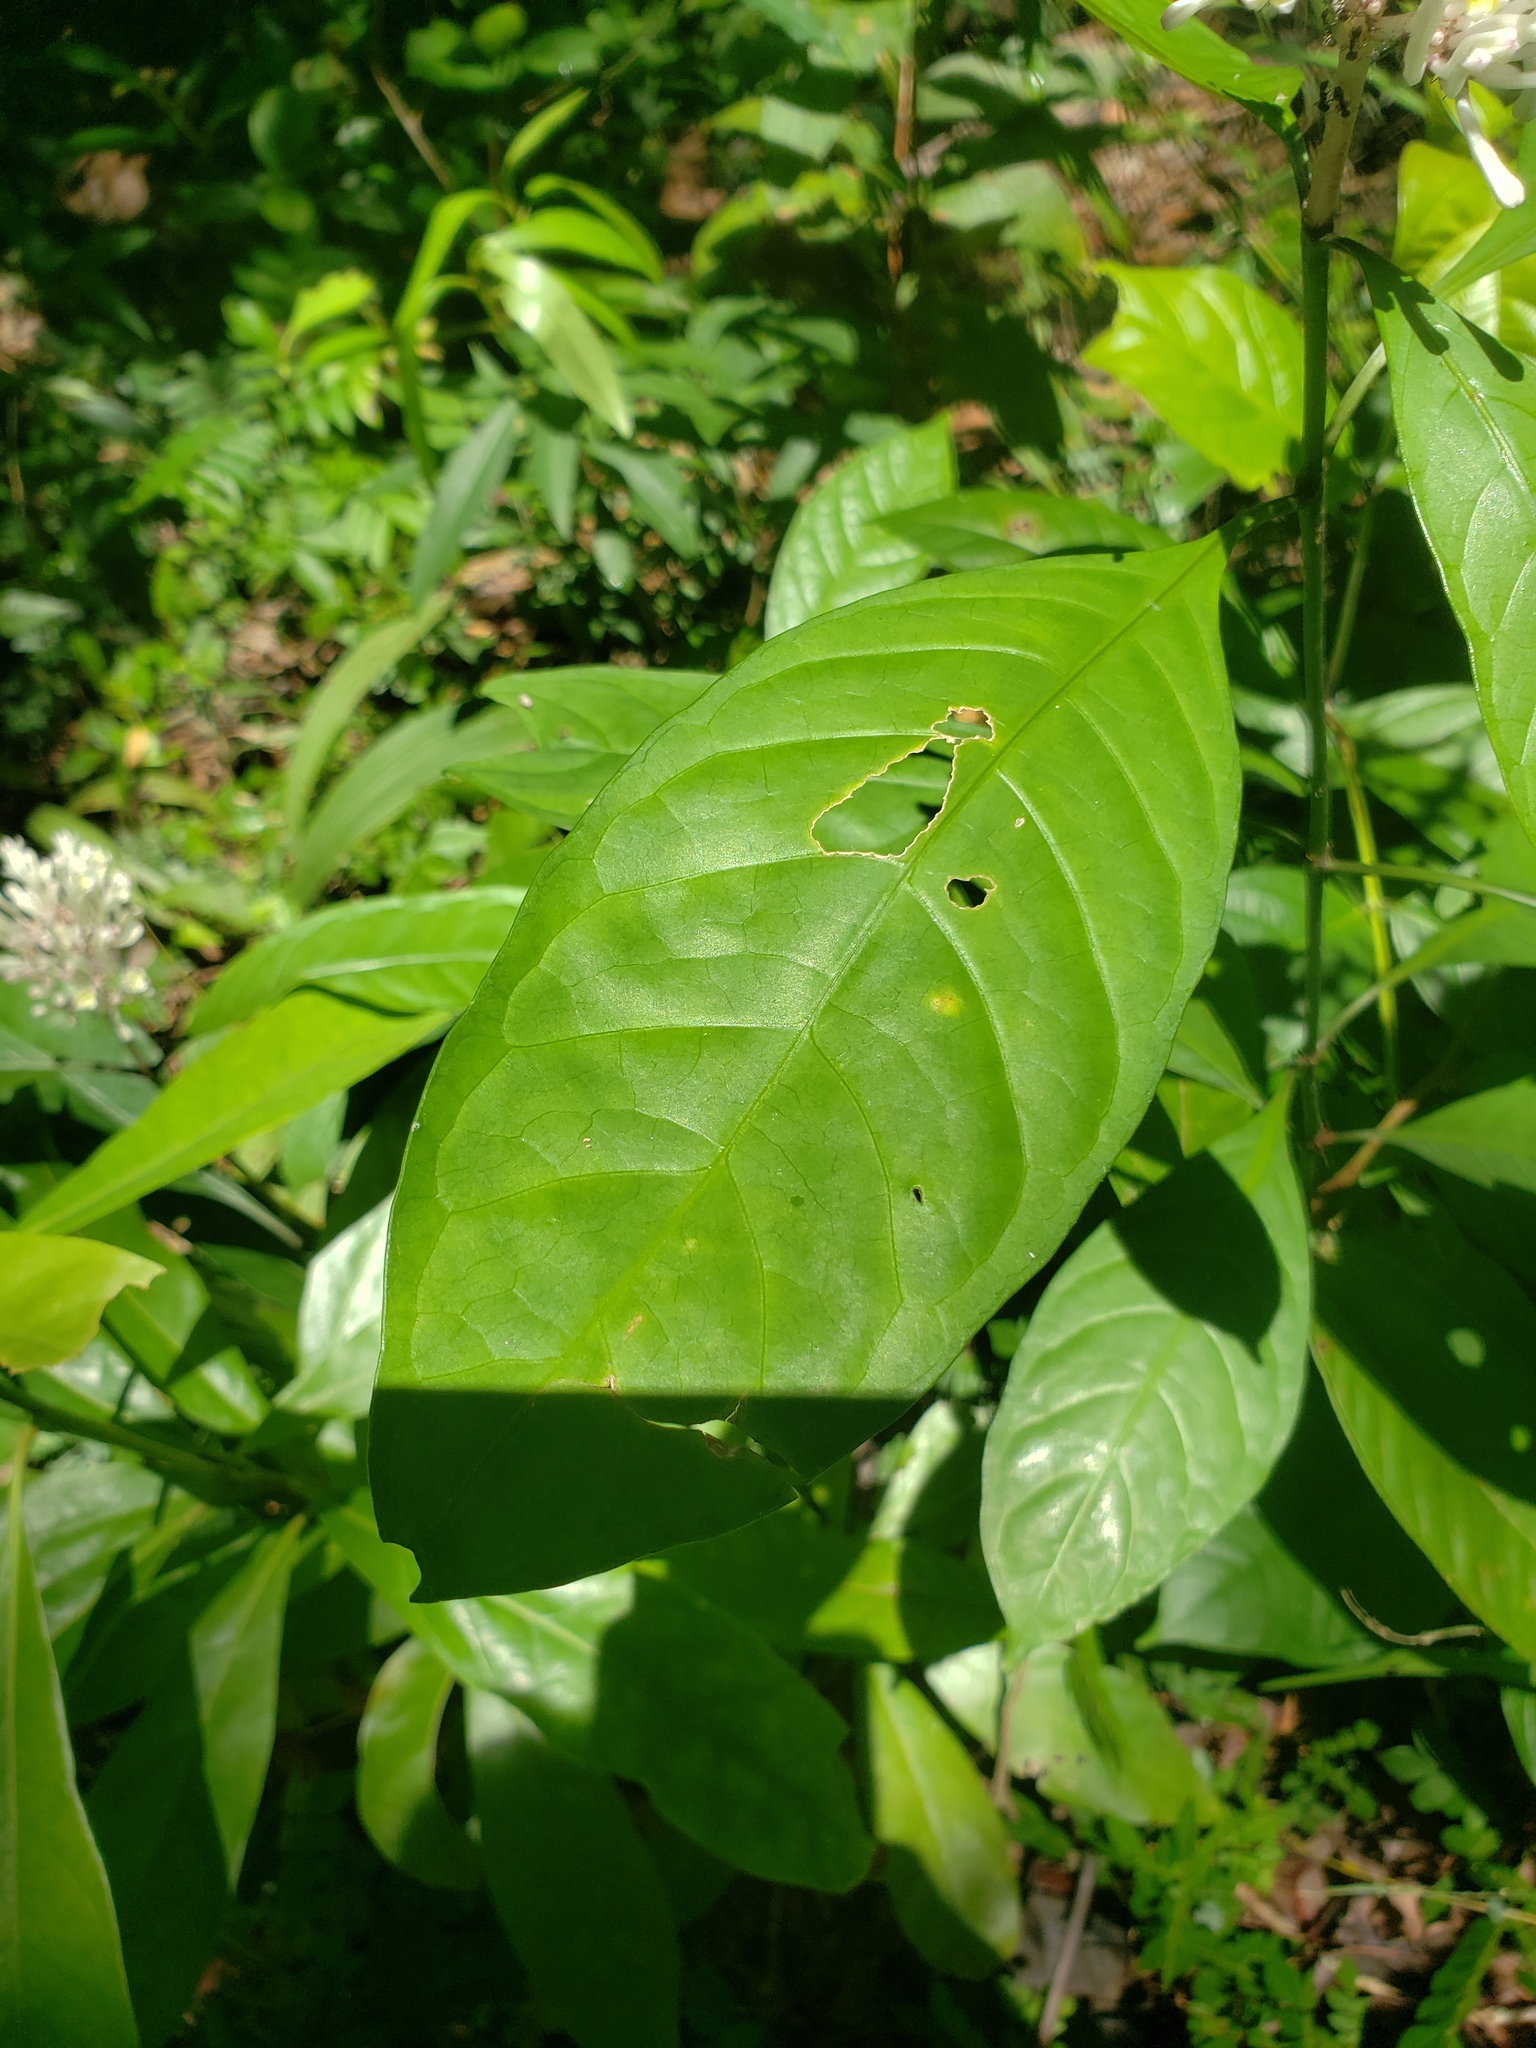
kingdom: Plantae
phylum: Tracheophyta
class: Magnoliopsida
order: Gentianales
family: Rubiaceae
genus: Chassalia
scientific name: Chassalia curviflora
